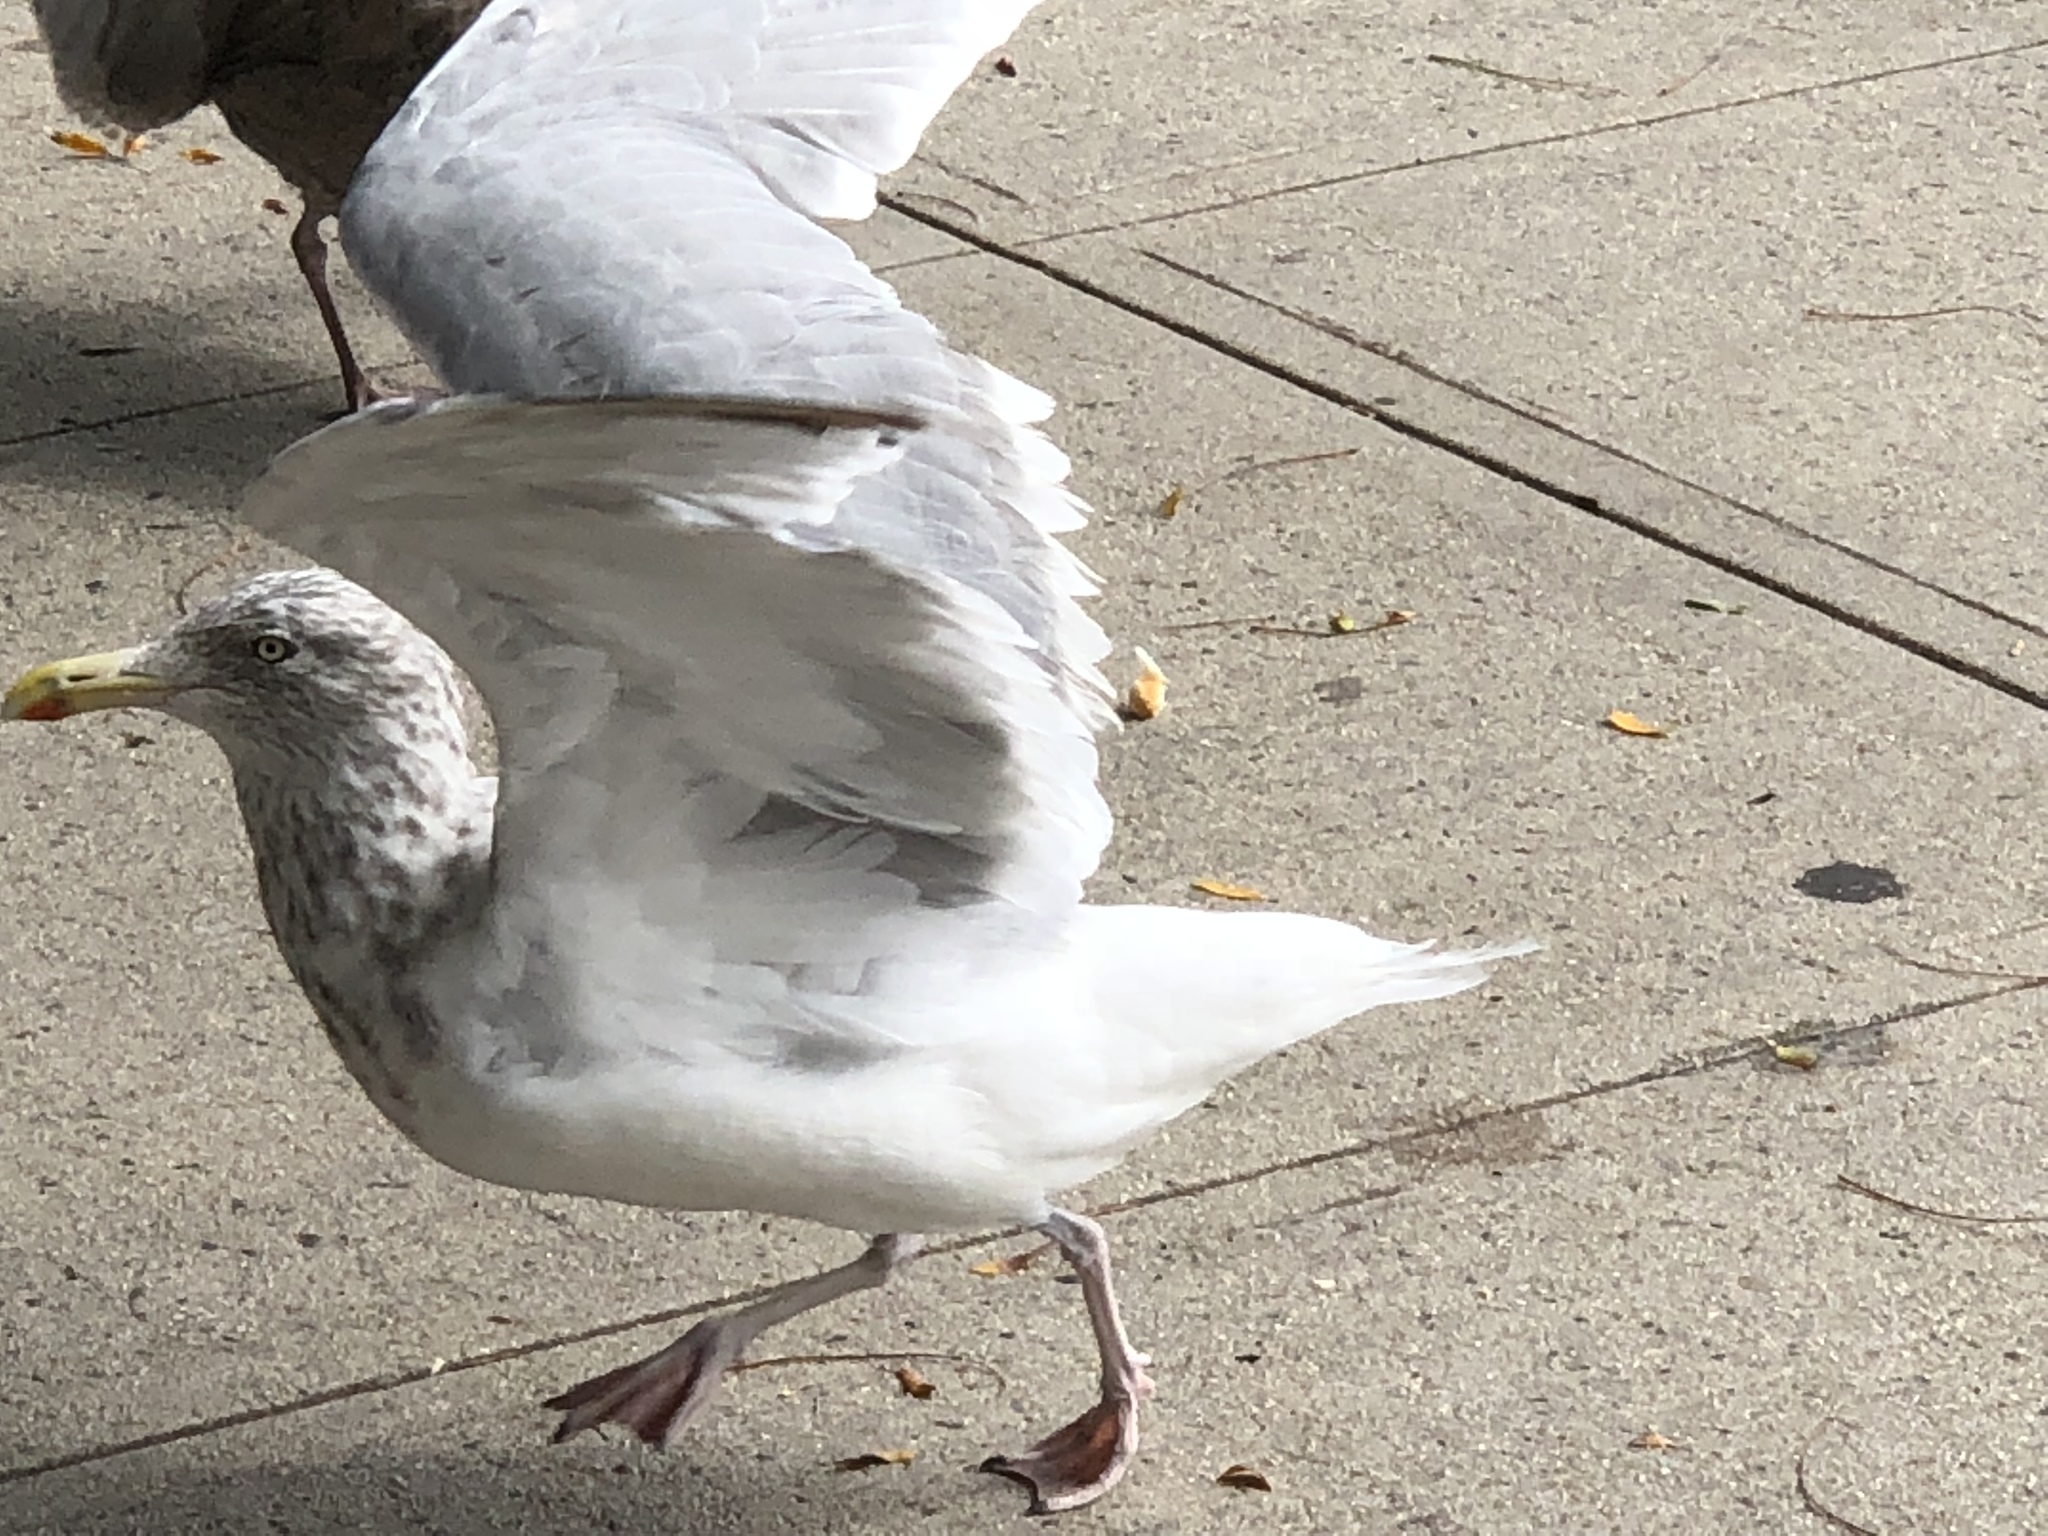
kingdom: Animalia
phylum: Chordata
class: Aves
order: Charadriiformes
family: Laridae
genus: Larus
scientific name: Larus delawarensis
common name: Ring-billed gull
